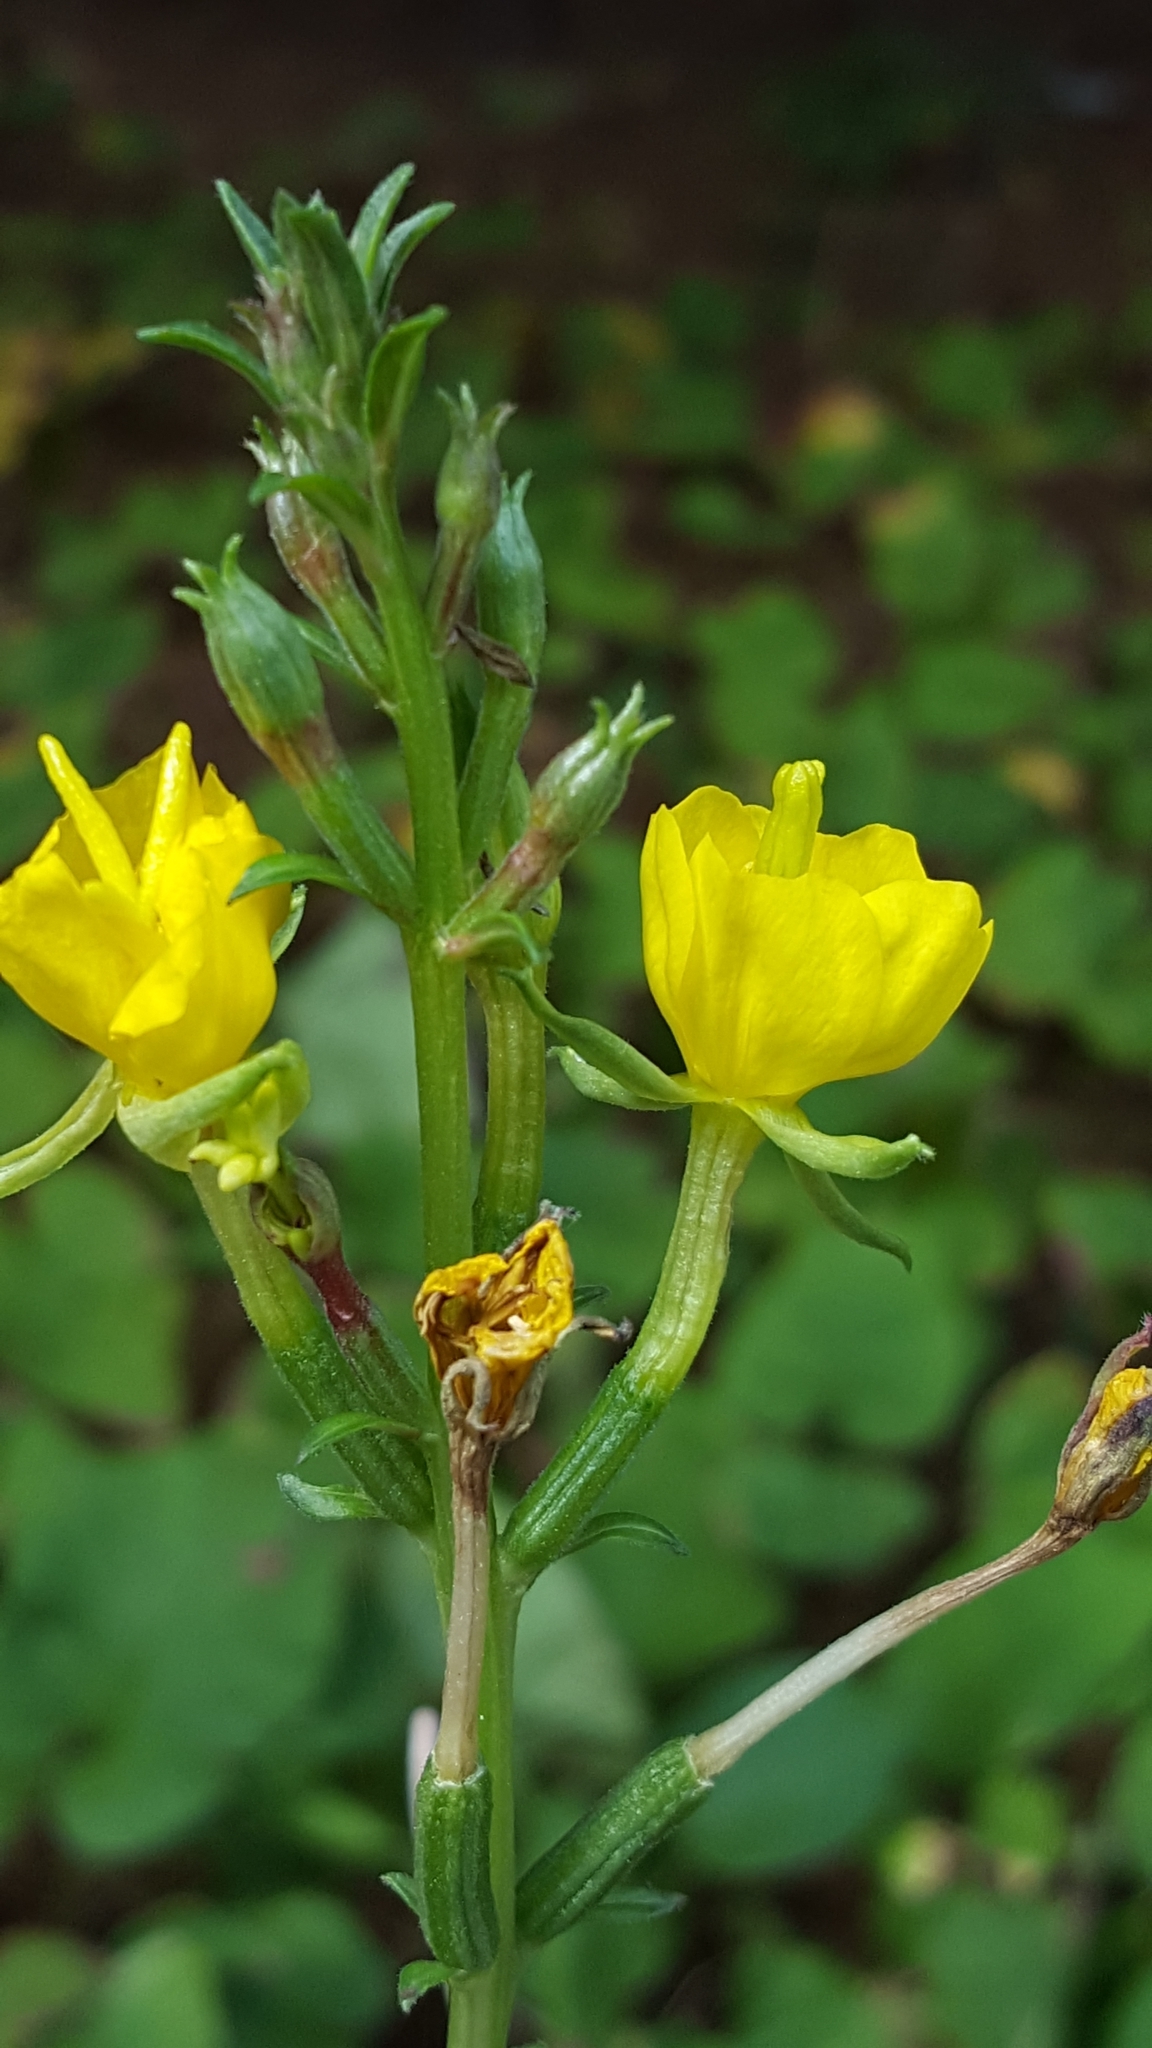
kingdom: Plantae
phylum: Tracheophyta
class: Magnoliopsida
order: Myrtales
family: Onagraceae
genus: Oenothera
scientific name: Oenothera parviflora
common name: Least evening-primrose
